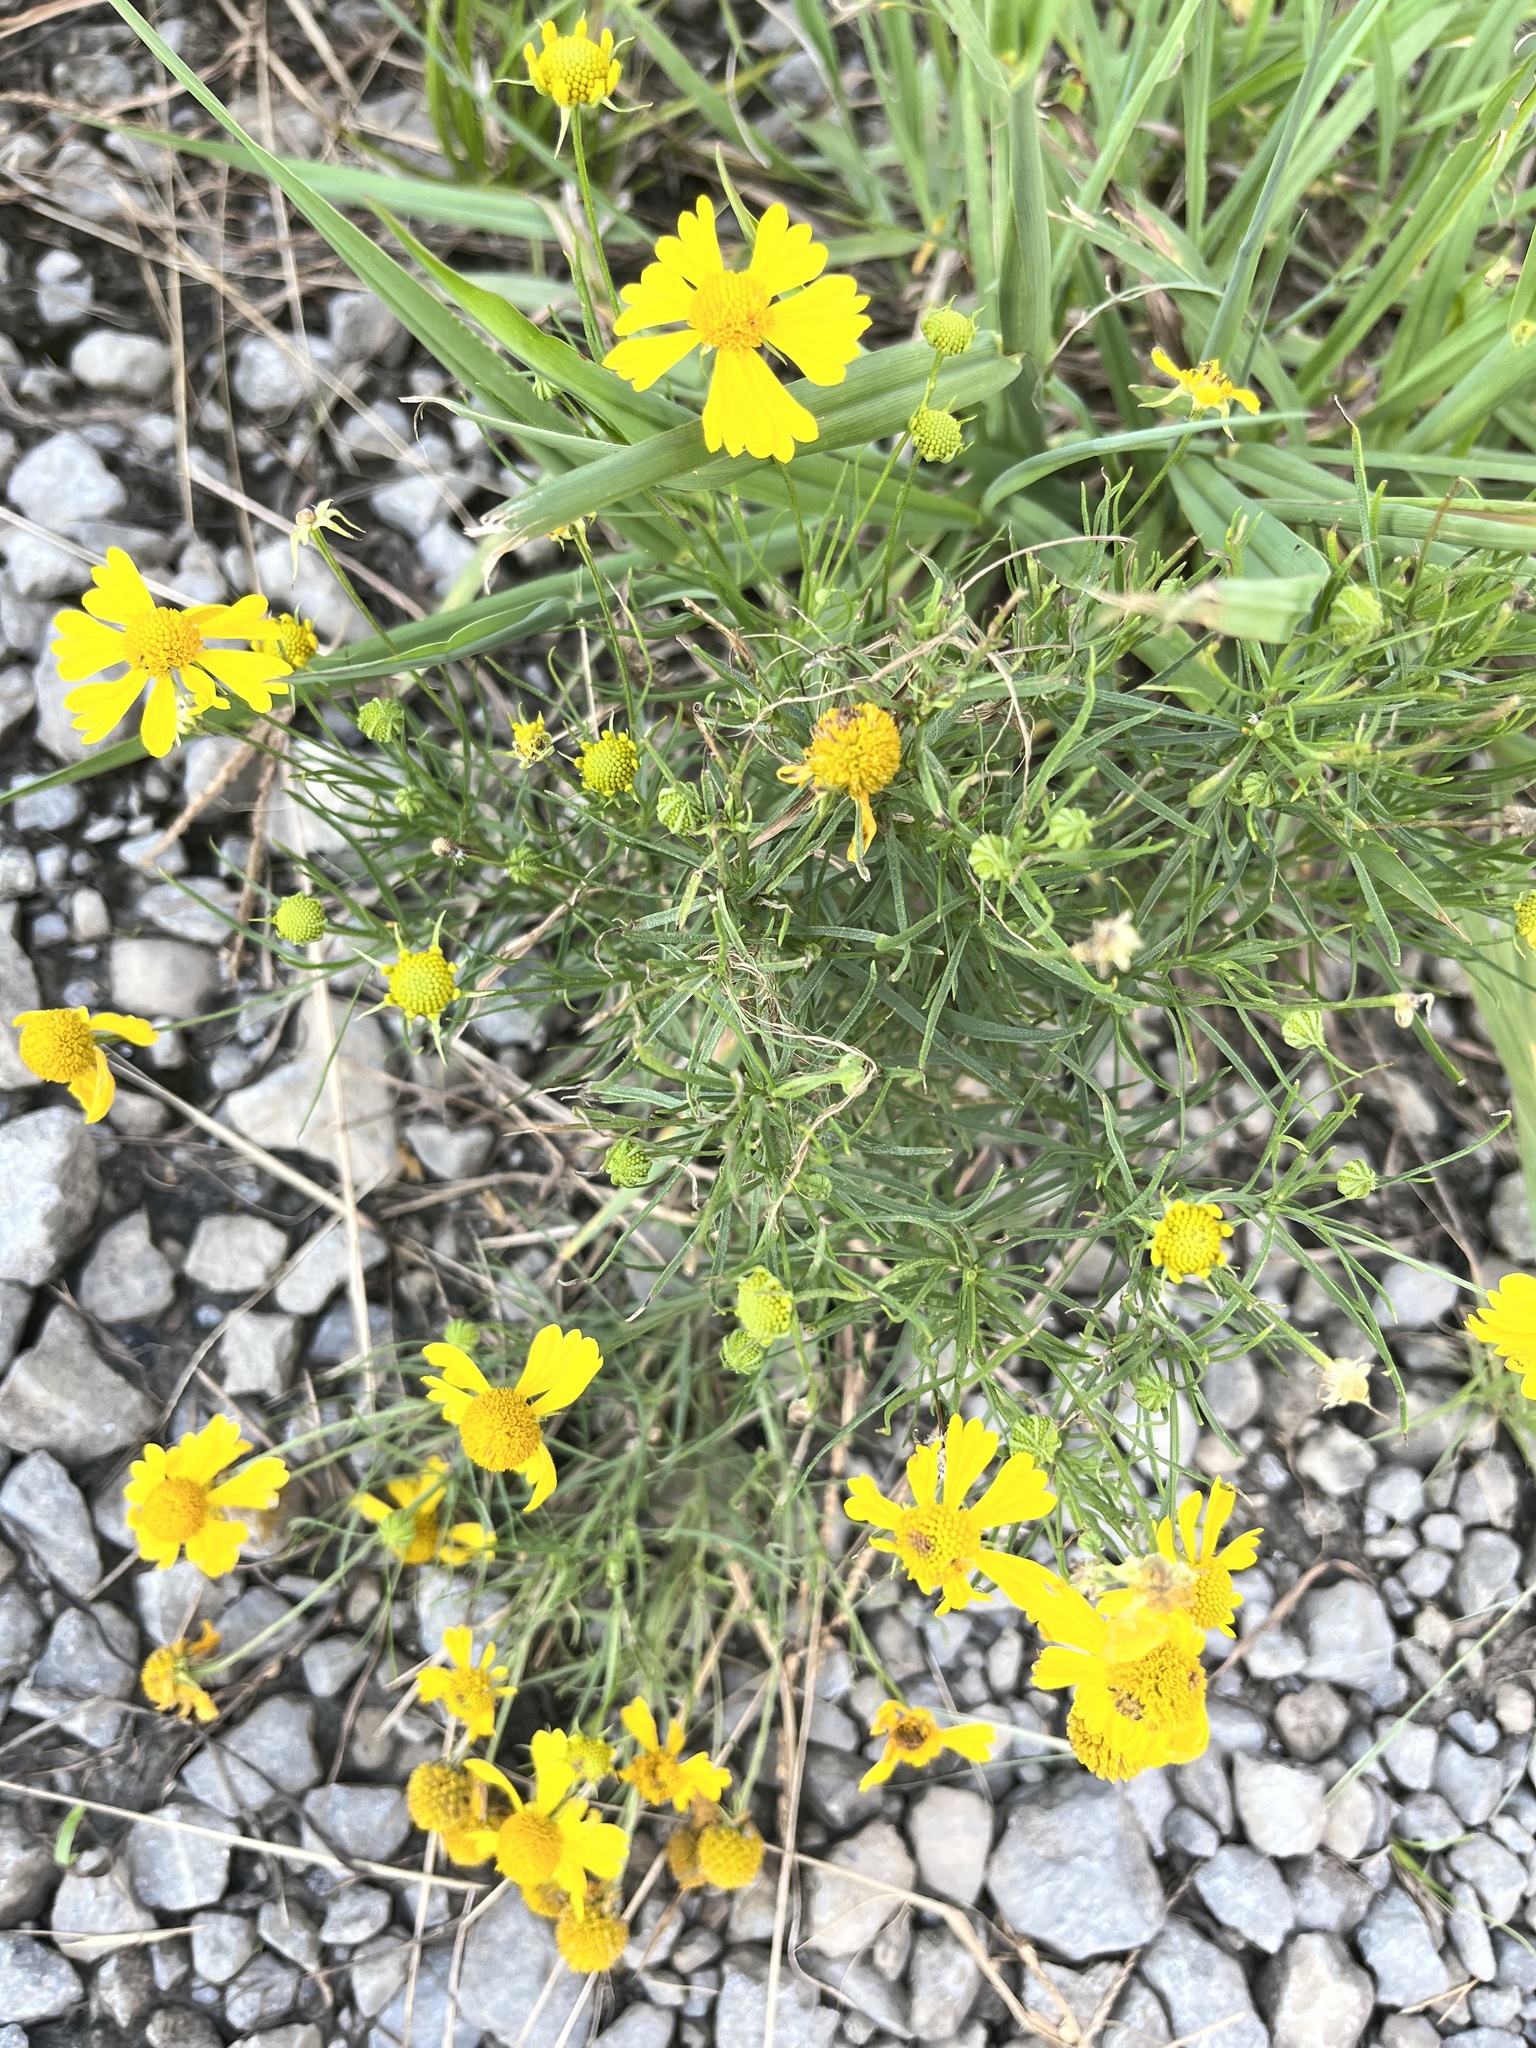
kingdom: Plantae
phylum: Tracheophyta
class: Magnoliopsida
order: Asterales
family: Asteraceae
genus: Helenium
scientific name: Helenium amarum
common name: Bitter sneezeweed
